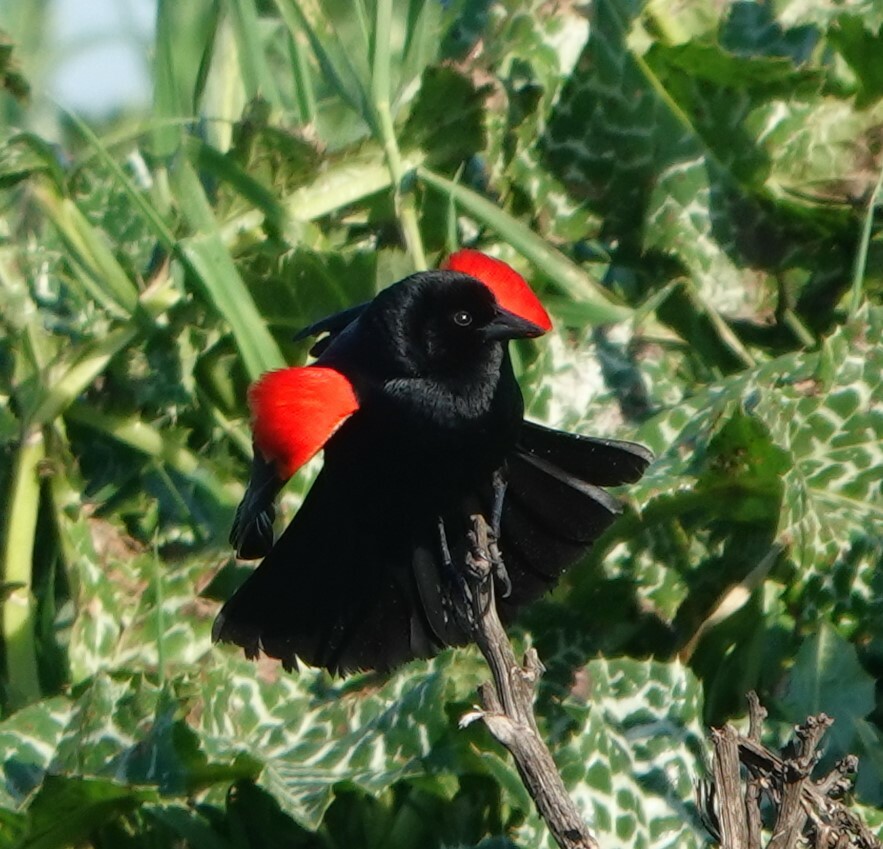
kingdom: Animalia
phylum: Chordata
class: Aves
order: Passeriformes
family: Icteridae
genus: Agelaius
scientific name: Agelaius phoeniceus
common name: Red-winged blackbird
